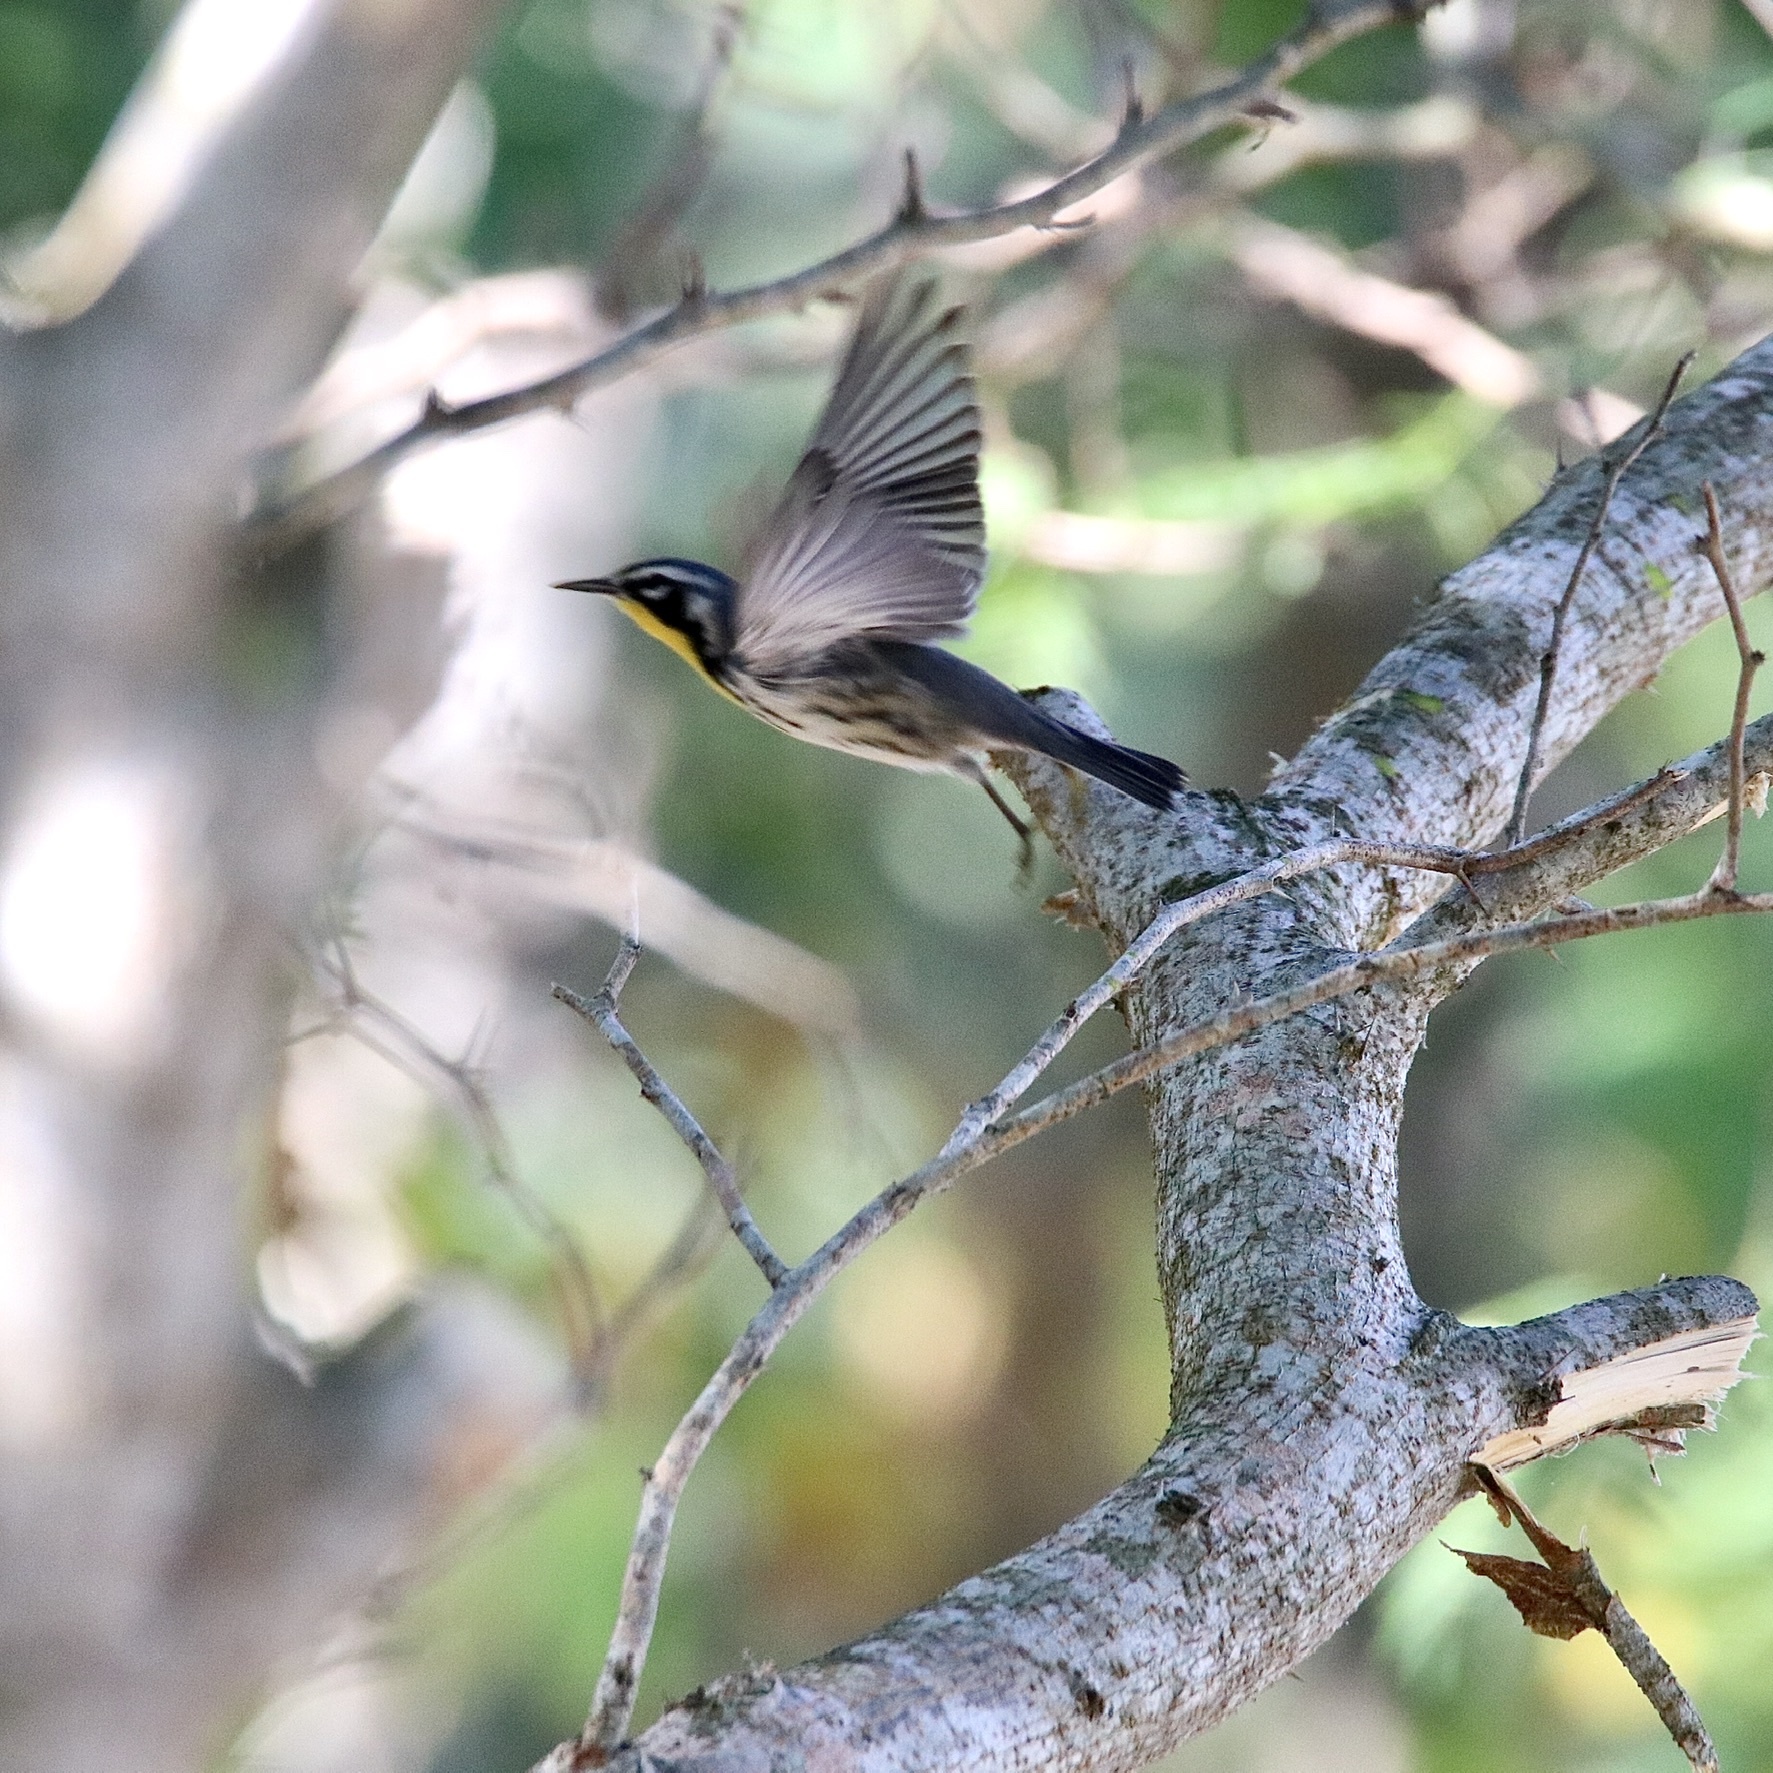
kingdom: Animalia
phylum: Chordata
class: Aves
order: Passeriformes
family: Parulidae
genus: Setophaga
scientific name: Setophaga dominica
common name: Yellow-throated warbler
